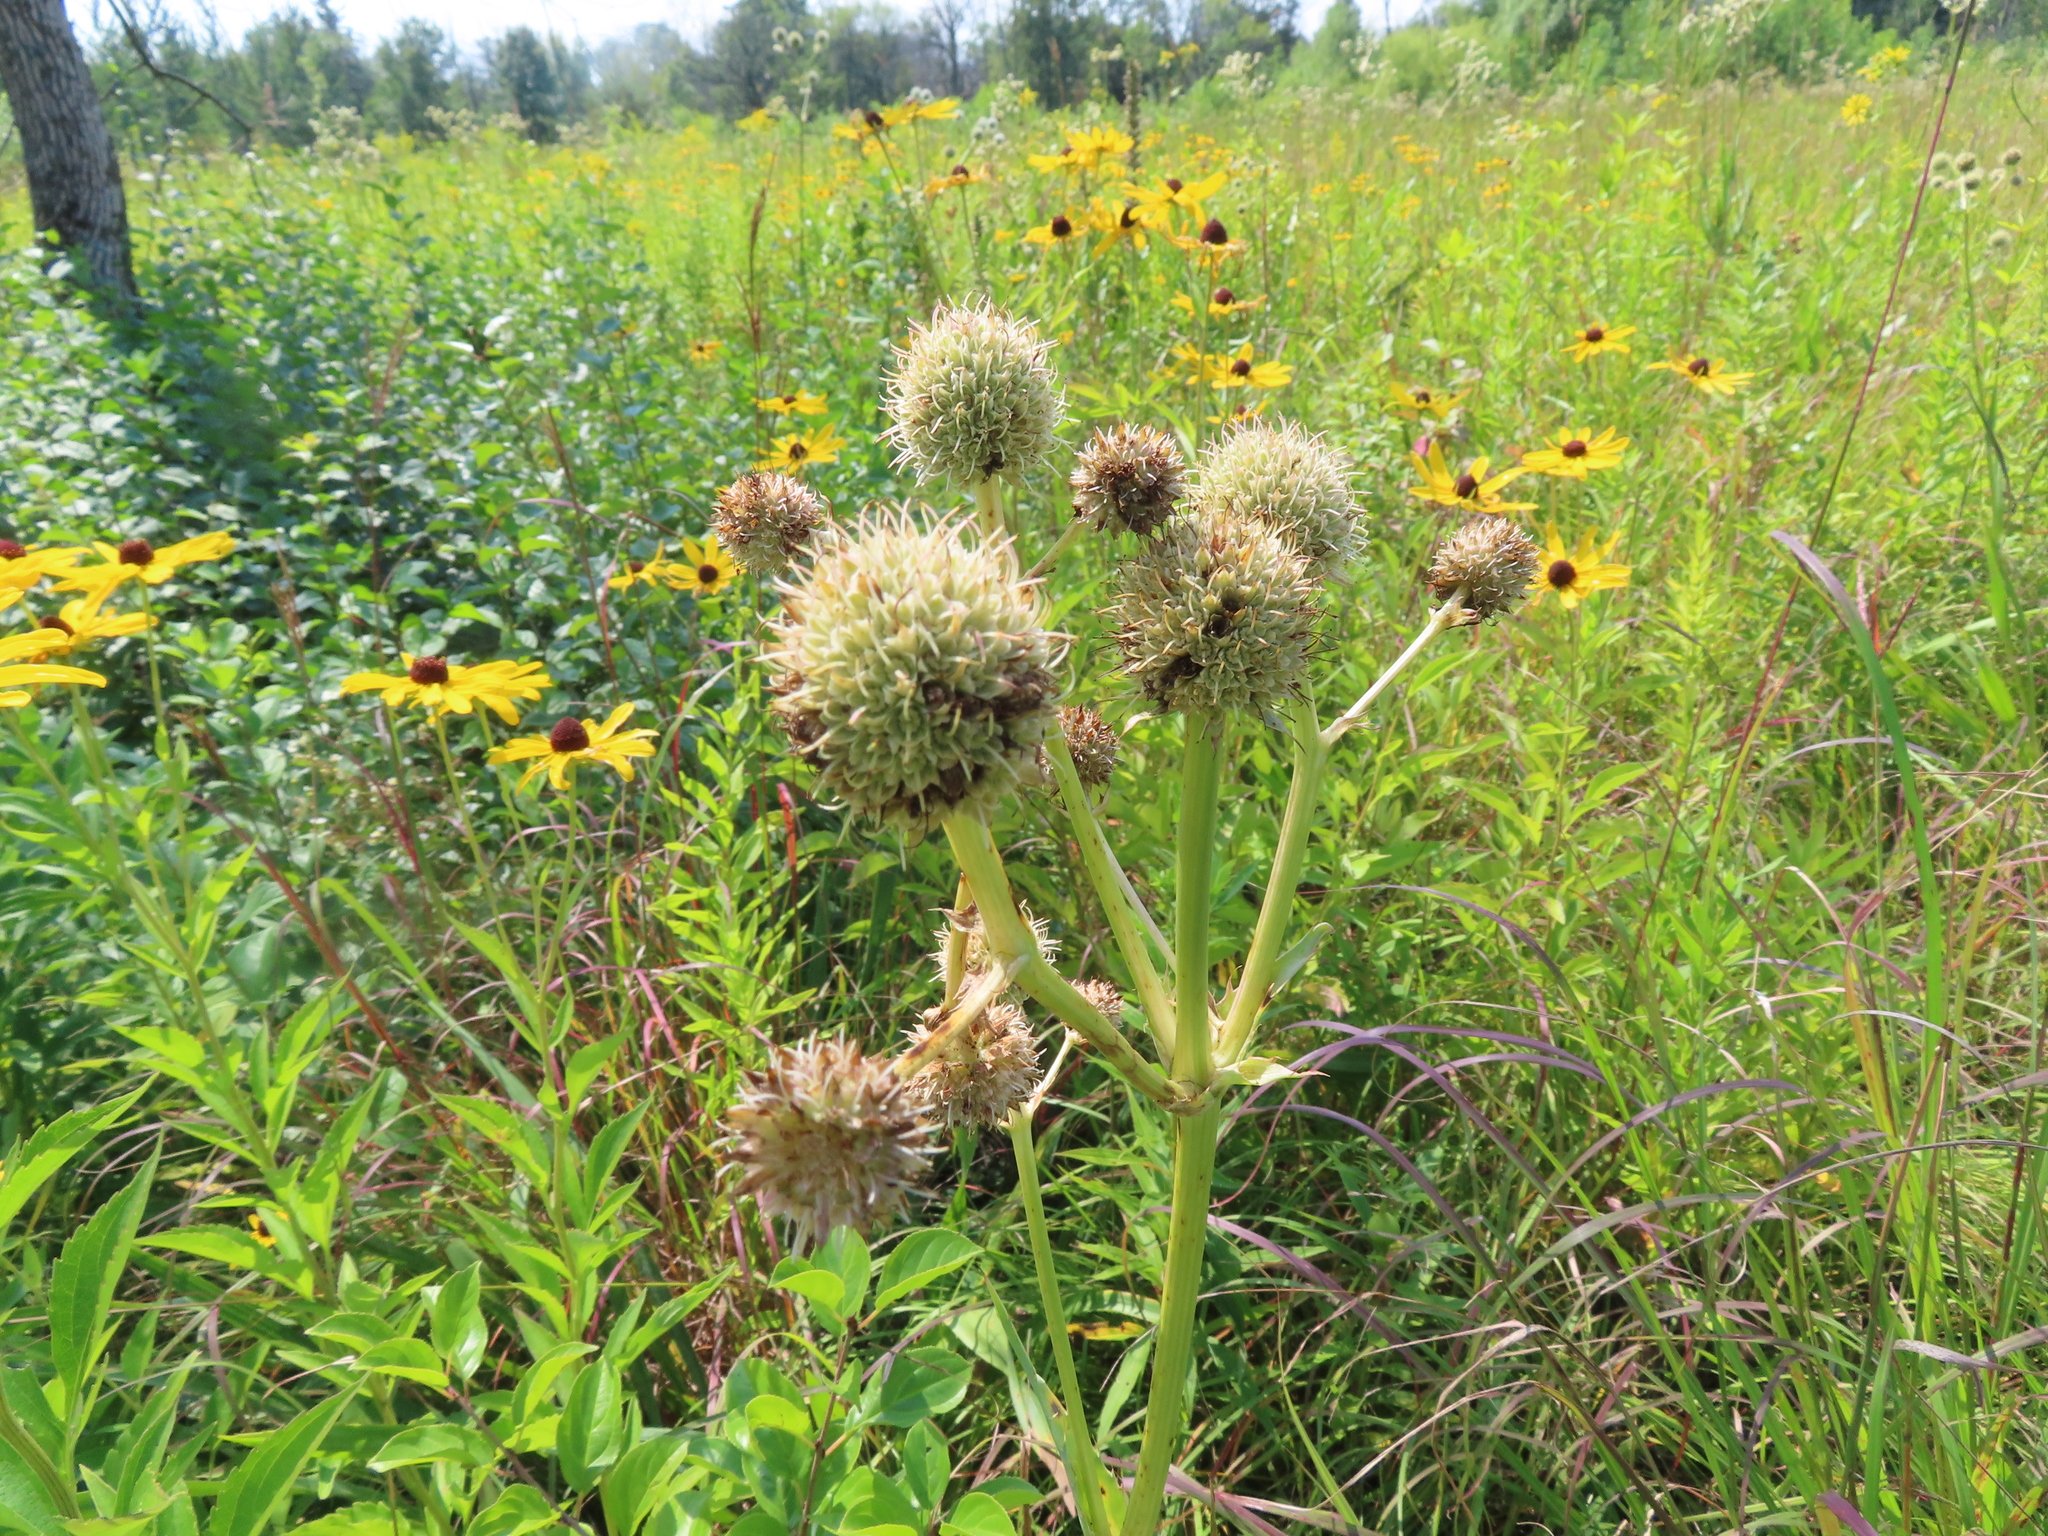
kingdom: Plantae
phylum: Tracheophyta
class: Magnoliopsida
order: Apiales
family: Apiaceae
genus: Eryngium
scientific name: Eryngium yuccifolium
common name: Button eryngo
